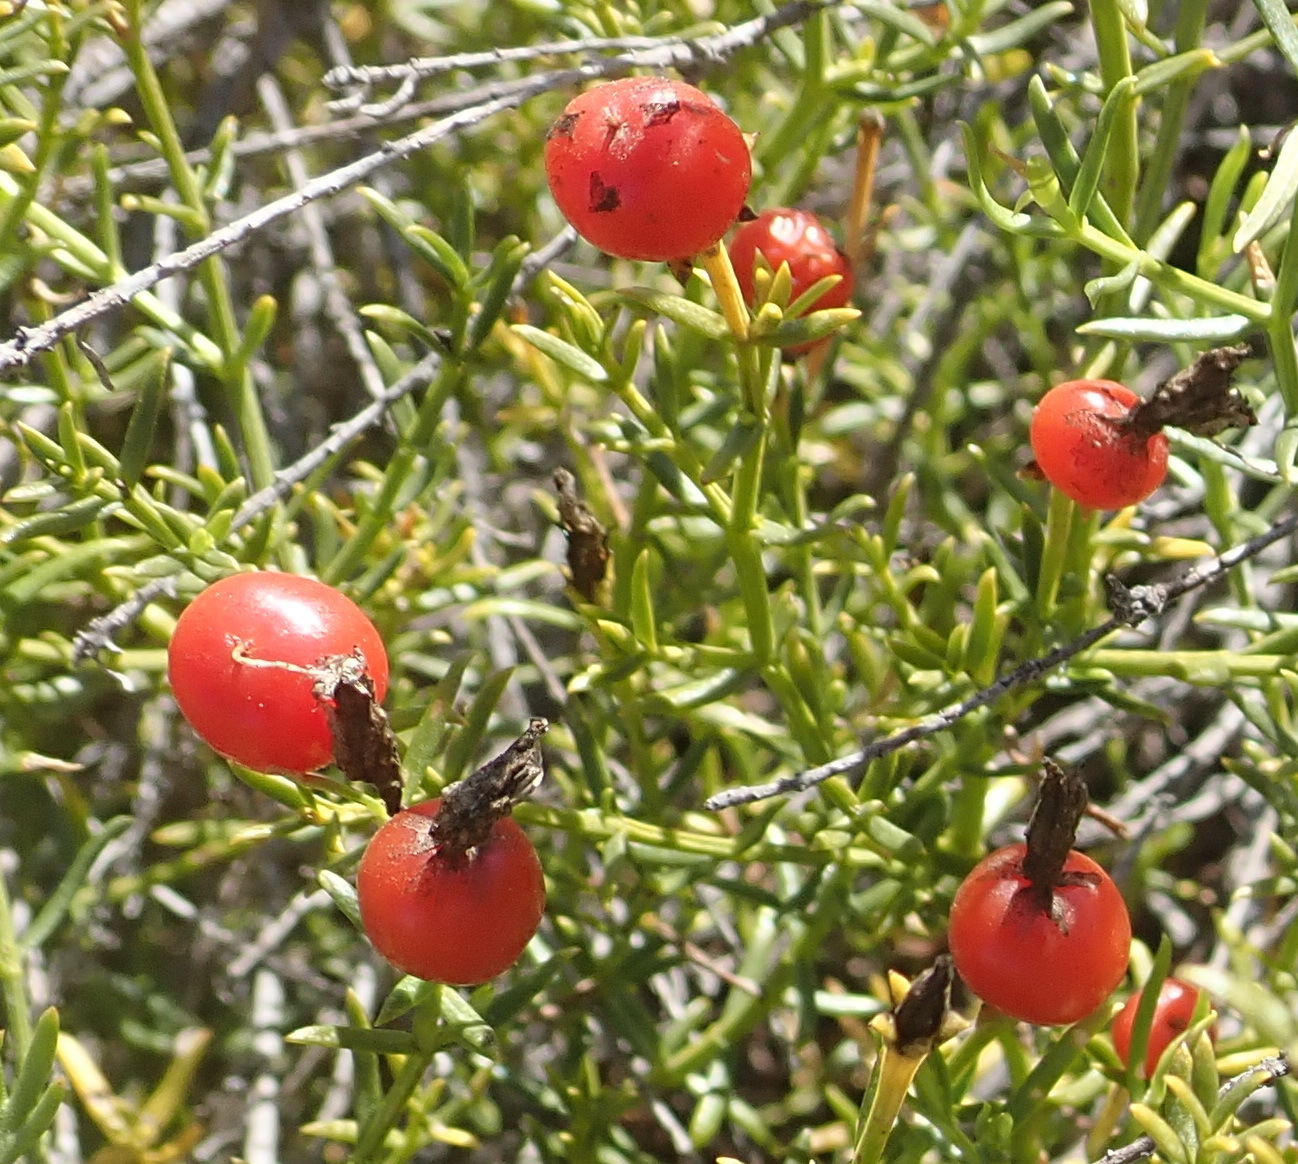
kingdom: Plantae
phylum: Tracheophyta
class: Magnoliopsida
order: Gentianales
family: Gentianaceae
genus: Chironia
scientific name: Chironia baccifera
